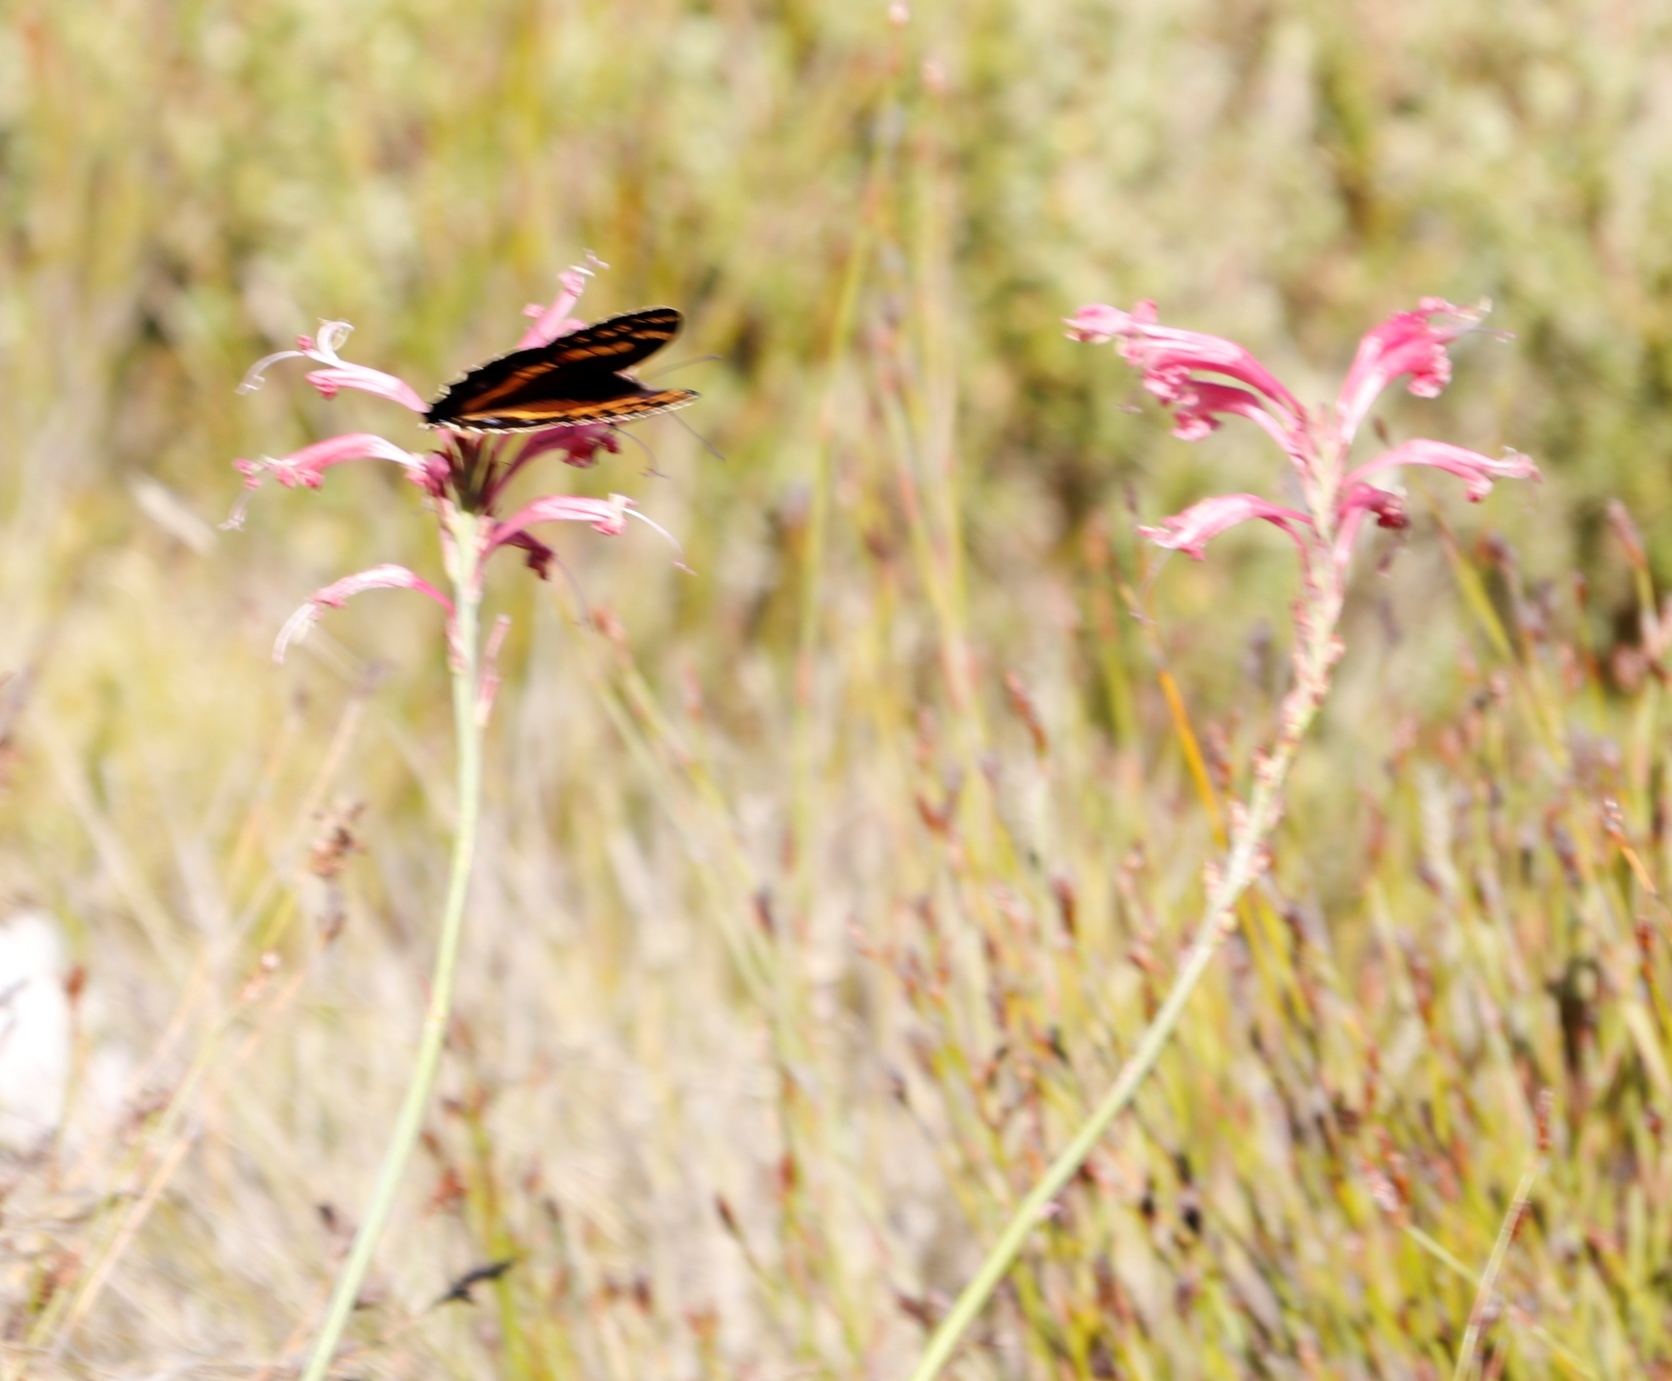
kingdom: Animalia
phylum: Arthropoda
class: Insecta
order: Lepidoptera
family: Nymphalidae
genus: Meneris
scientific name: Meneris Aeropetes tulbaghia
